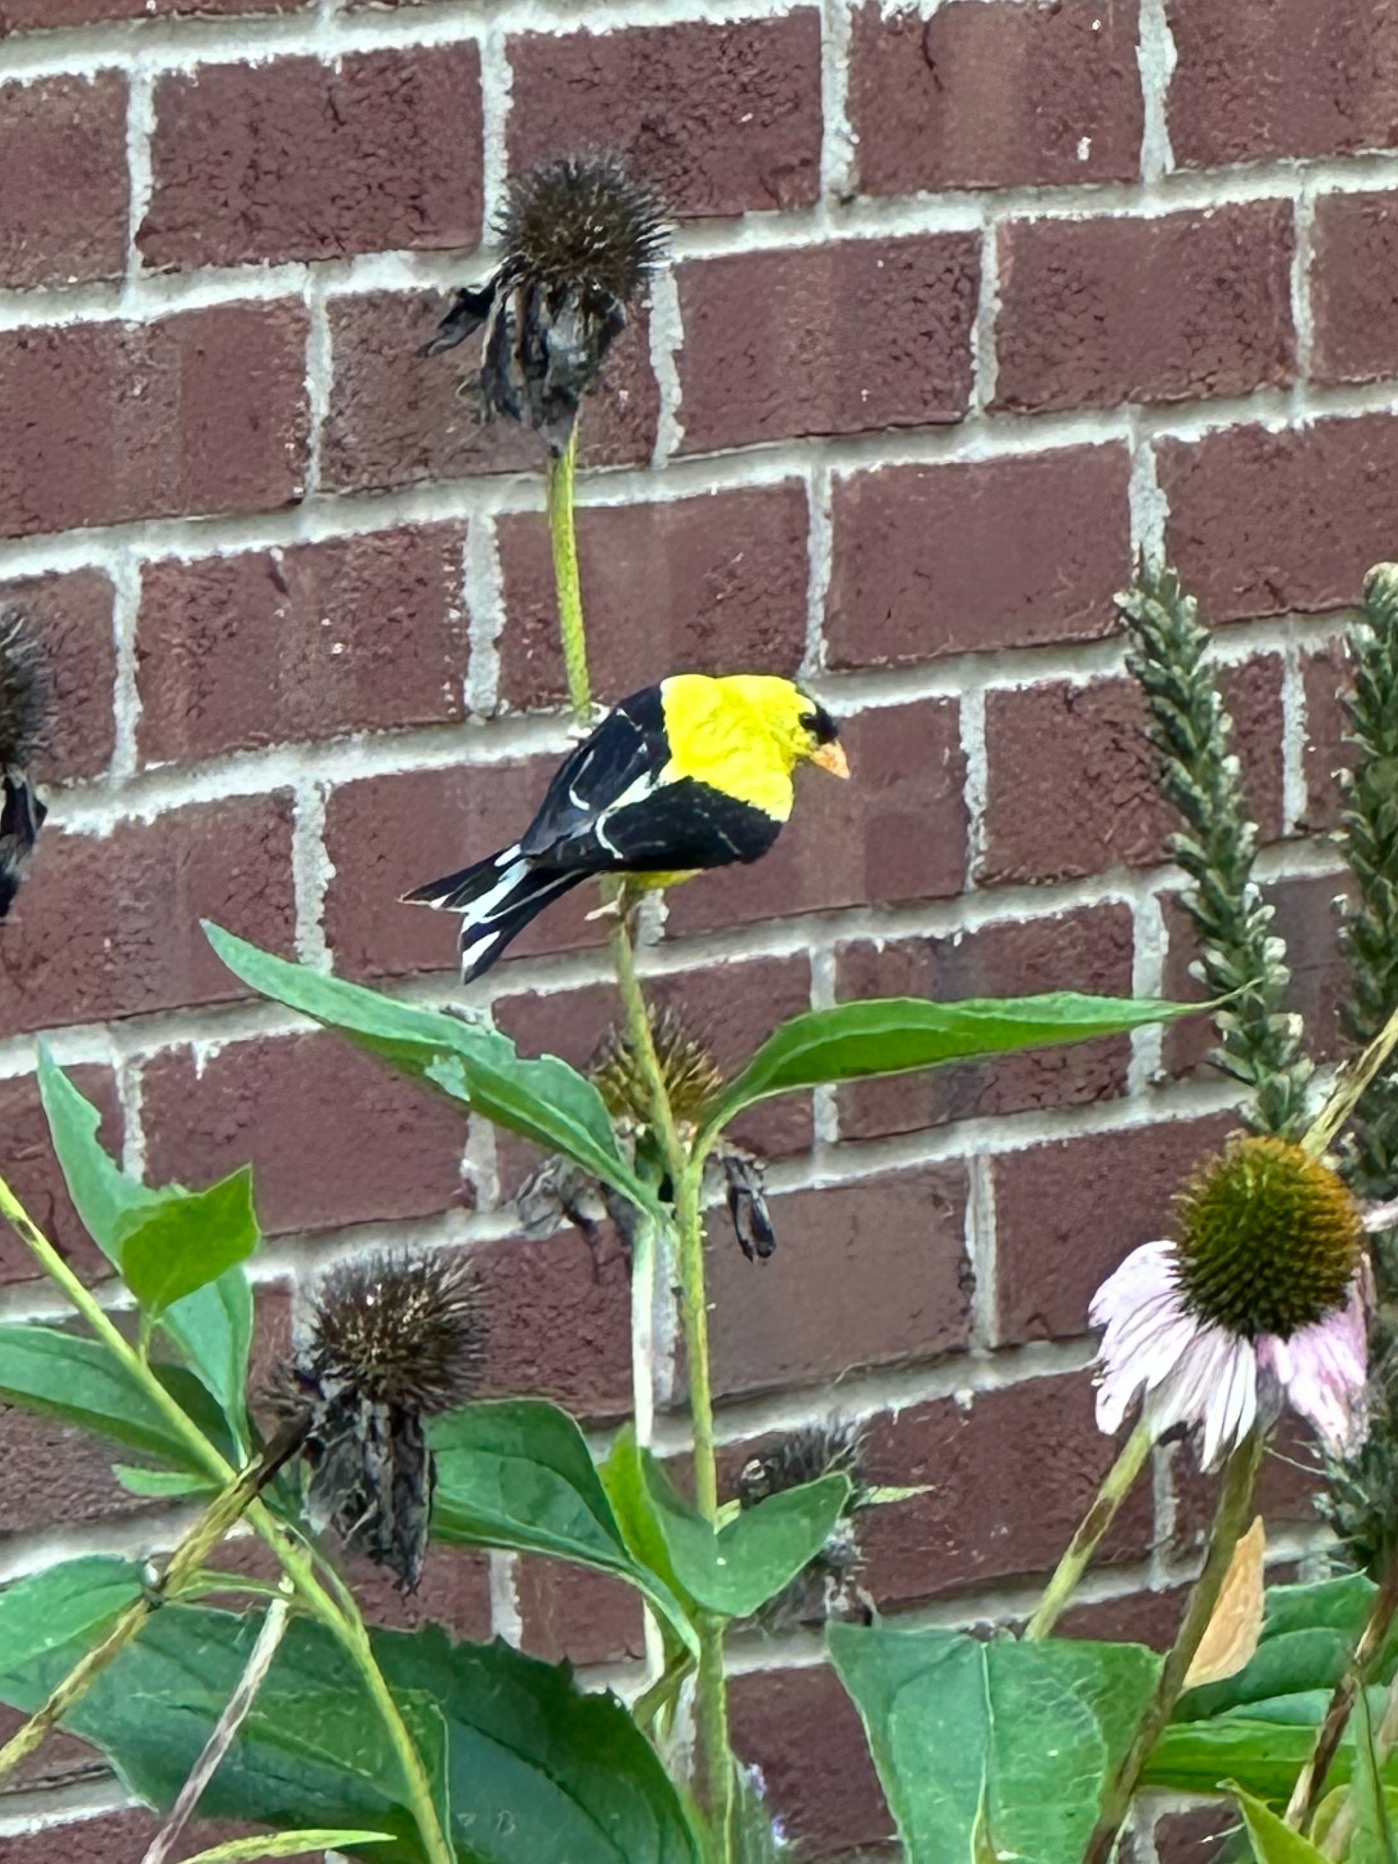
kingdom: Animalia
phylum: Chordata
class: Aves
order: Passeriformes
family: Fringillidae
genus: Spinus
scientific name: Spinus tristis
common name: American goldfinch
